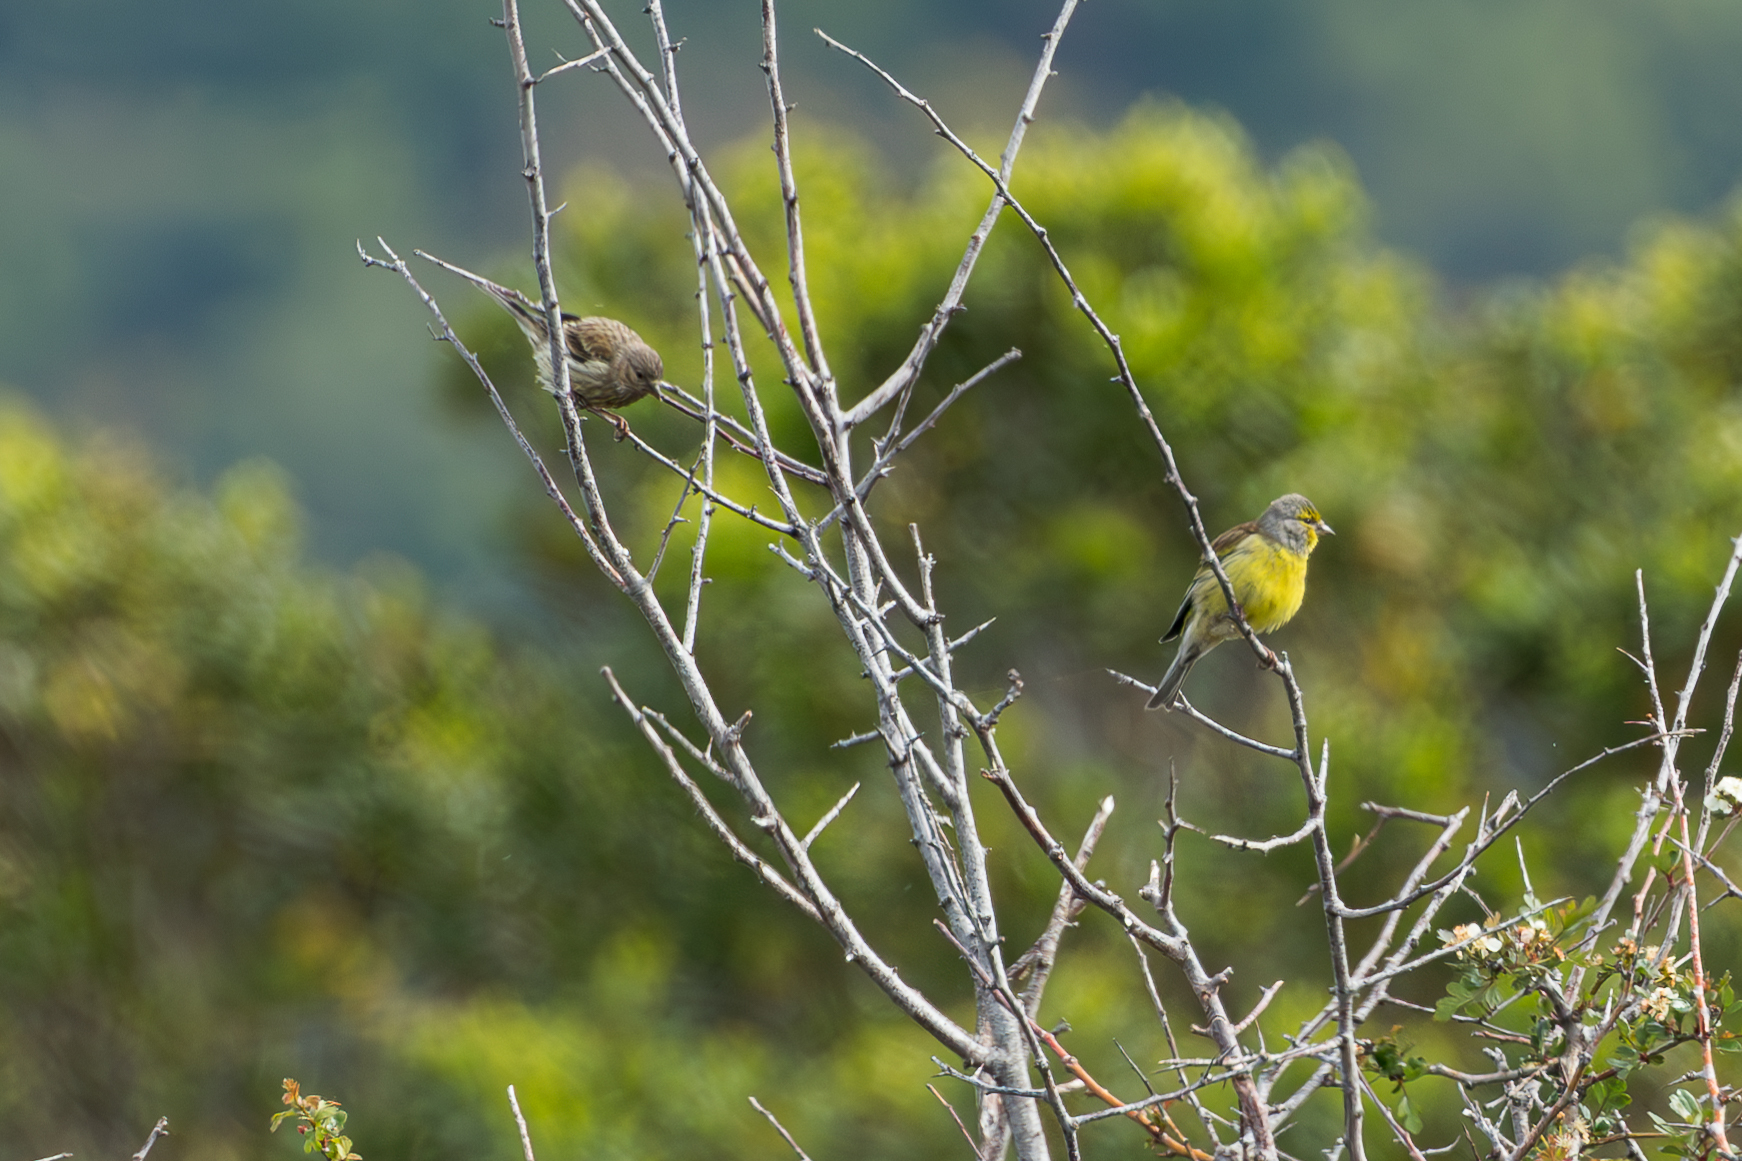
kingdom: Animalia
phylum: Chordata
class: Aves
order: Passeriformes
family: Fringillidae
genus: Carduelis
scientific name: Carduelis corsicana
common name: Corsican finch
